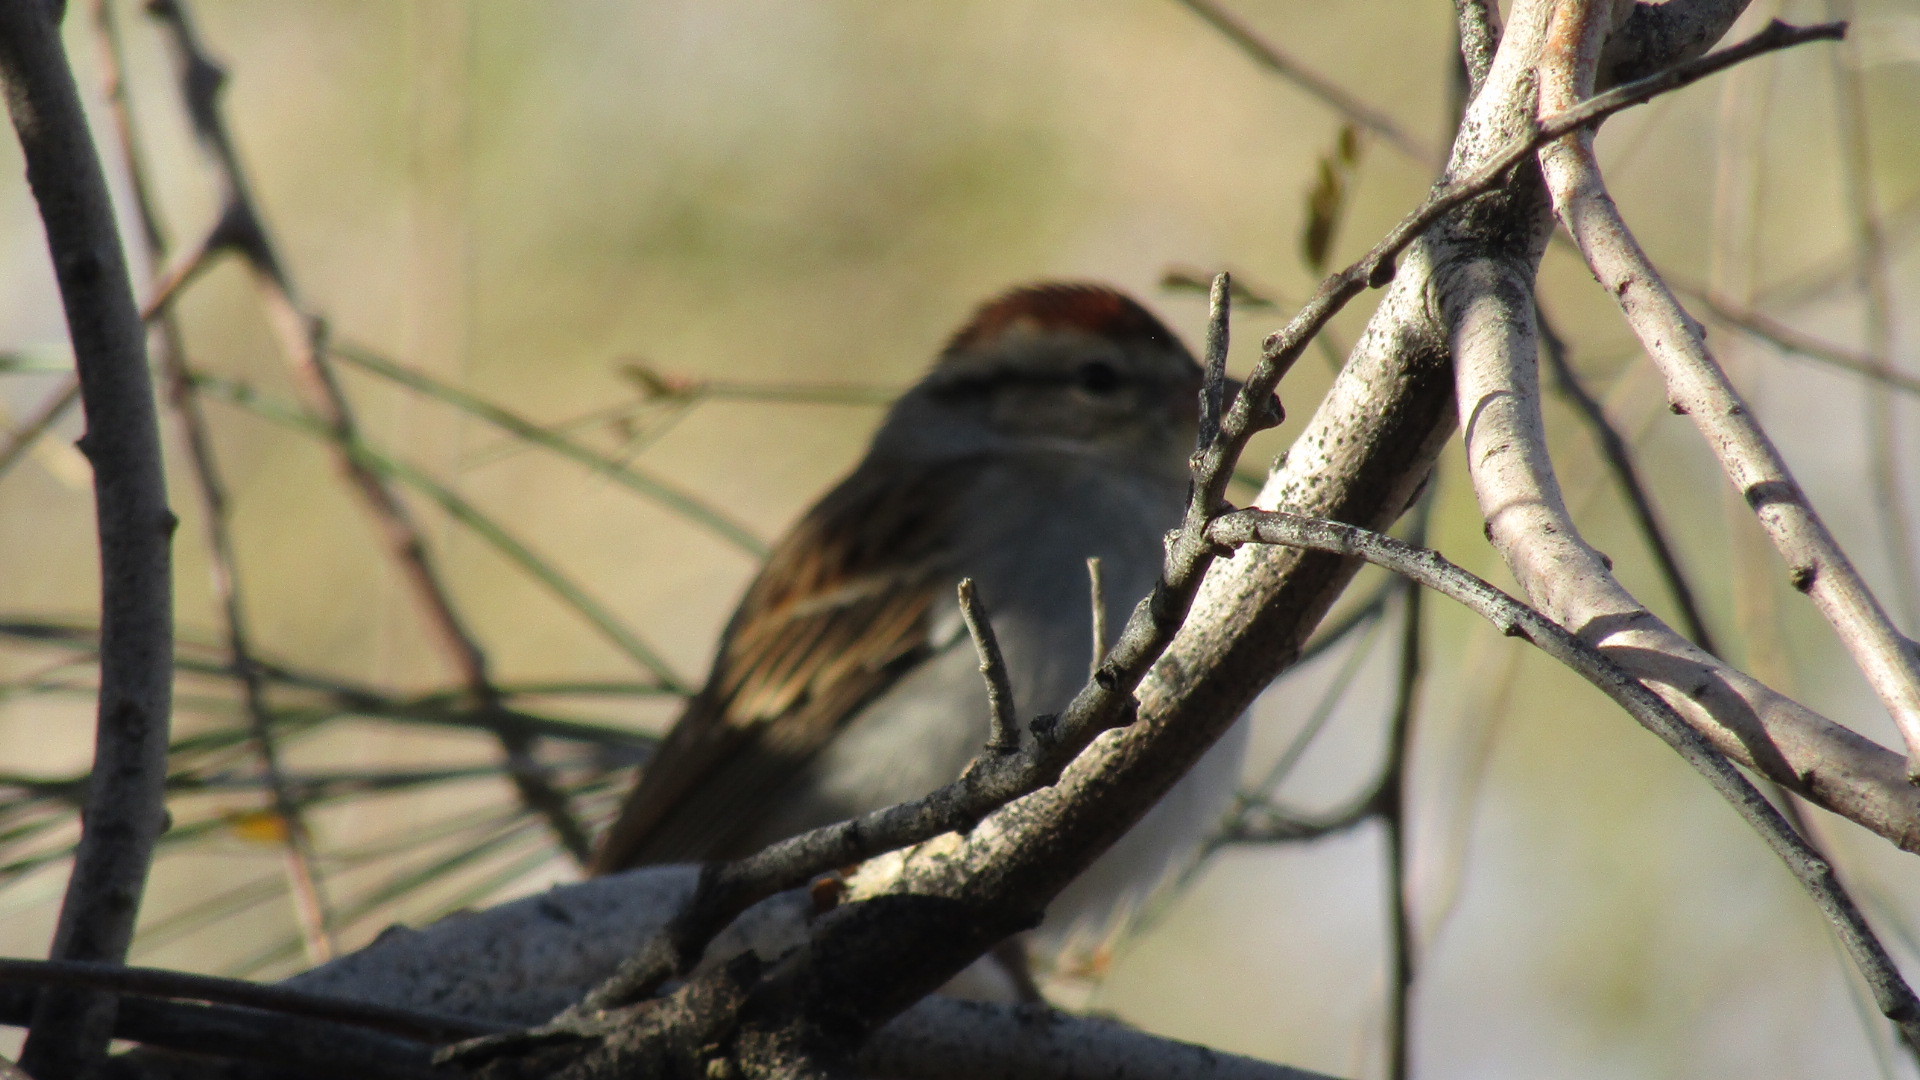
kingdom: Animalia
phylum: Chordata
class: Aves
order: Passeriformes
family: Passerellidae
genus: Spizella
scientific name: Spizella passerina
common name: Chipping sparrow
